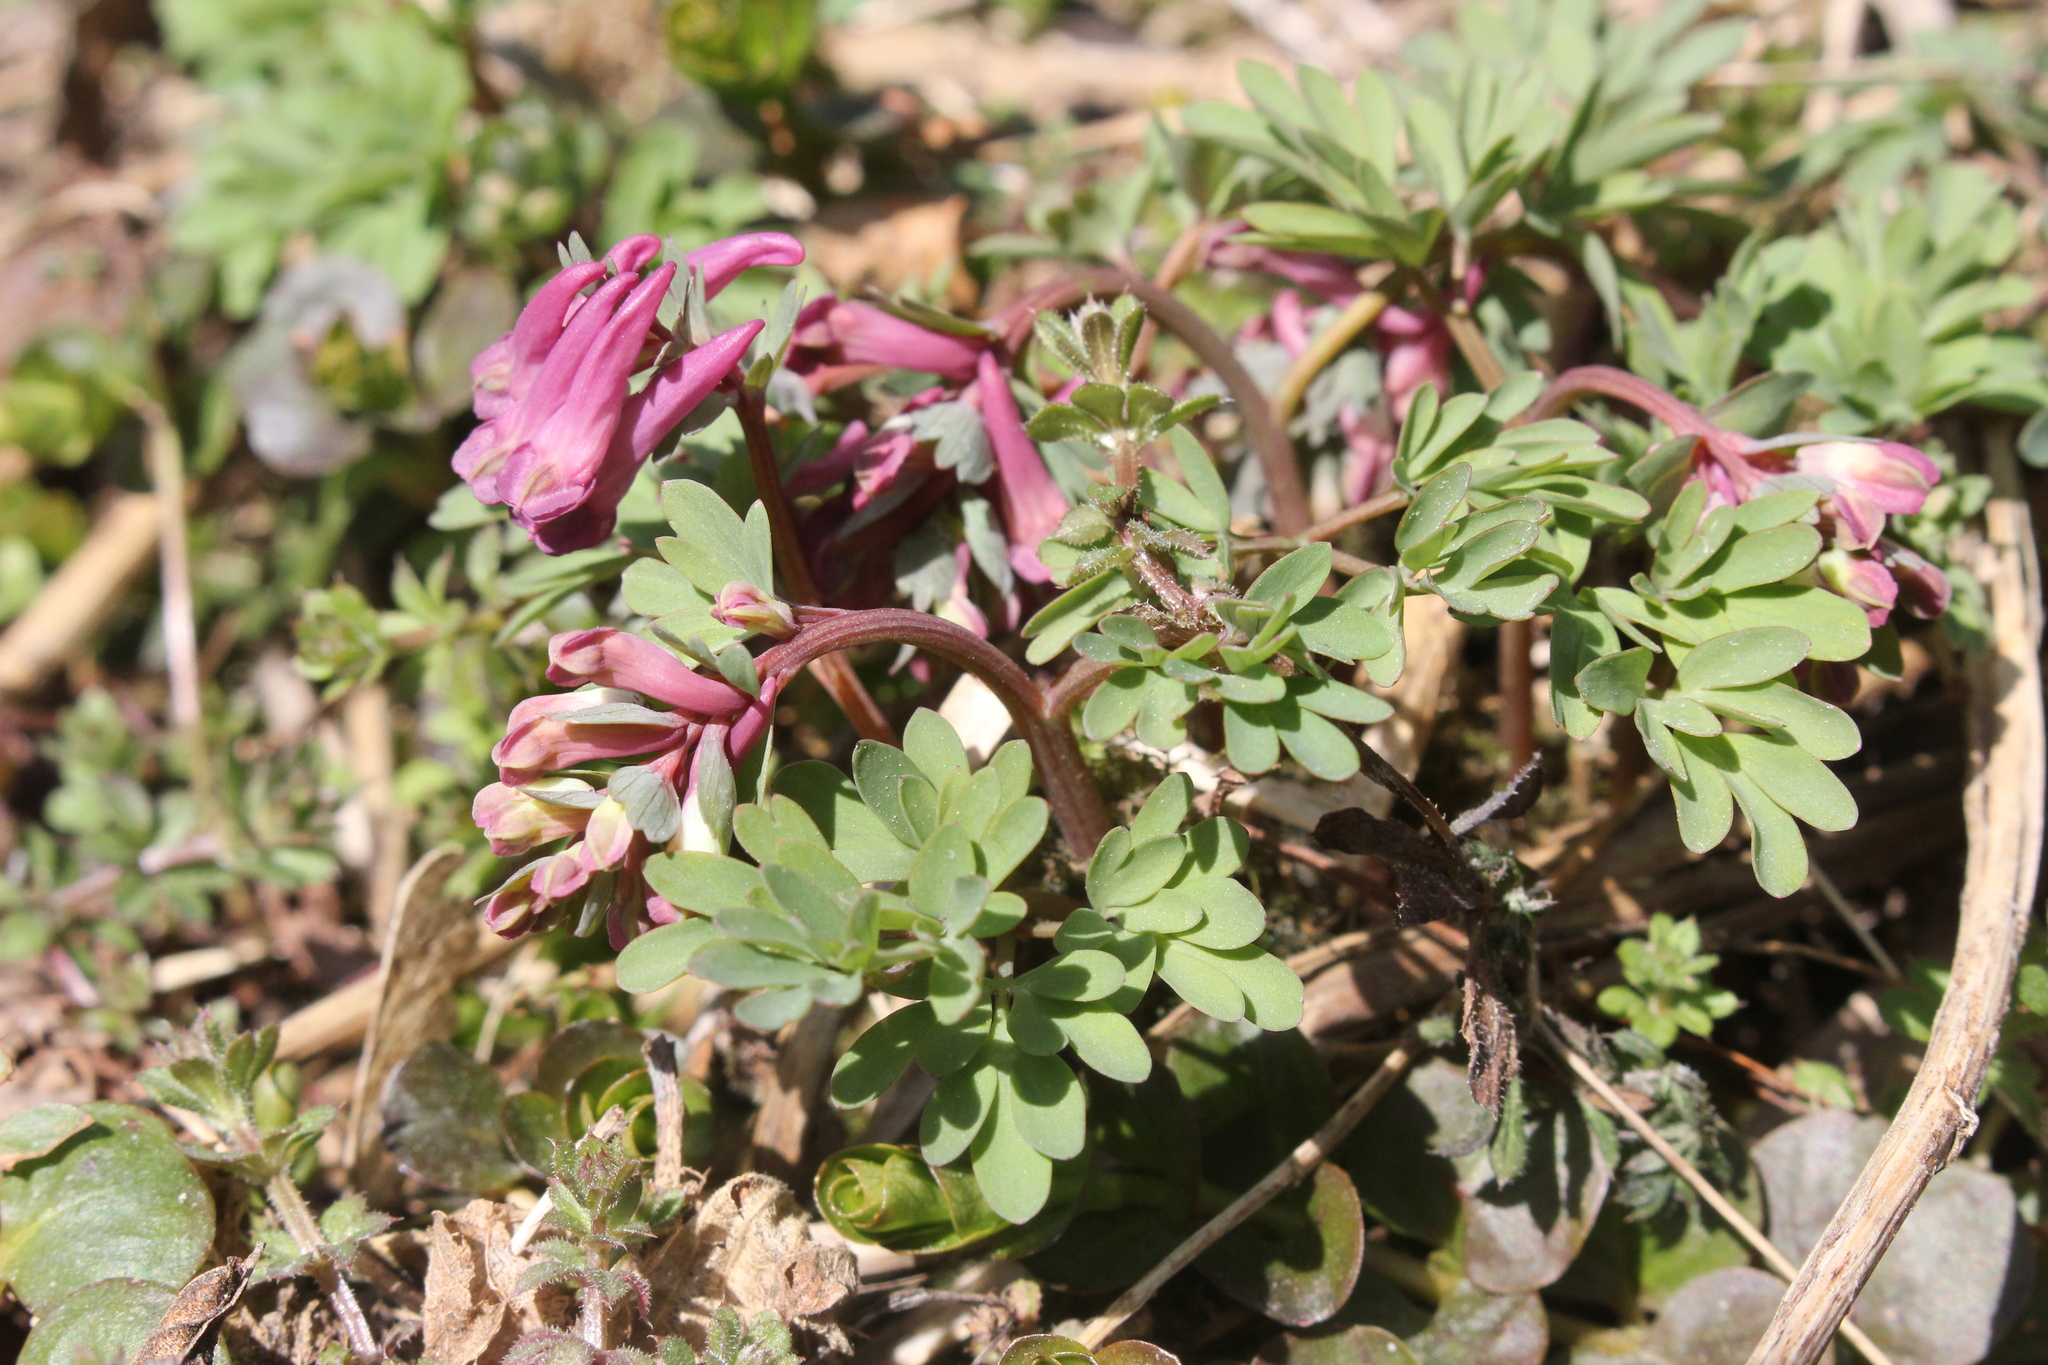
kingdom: Plantae
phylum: Tracheophyta
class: Magnoliopsida
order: Ranunculales
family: Papaveraceae
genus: Corydalis
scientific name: Corydalis solida
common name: Bird-in-a-bush
